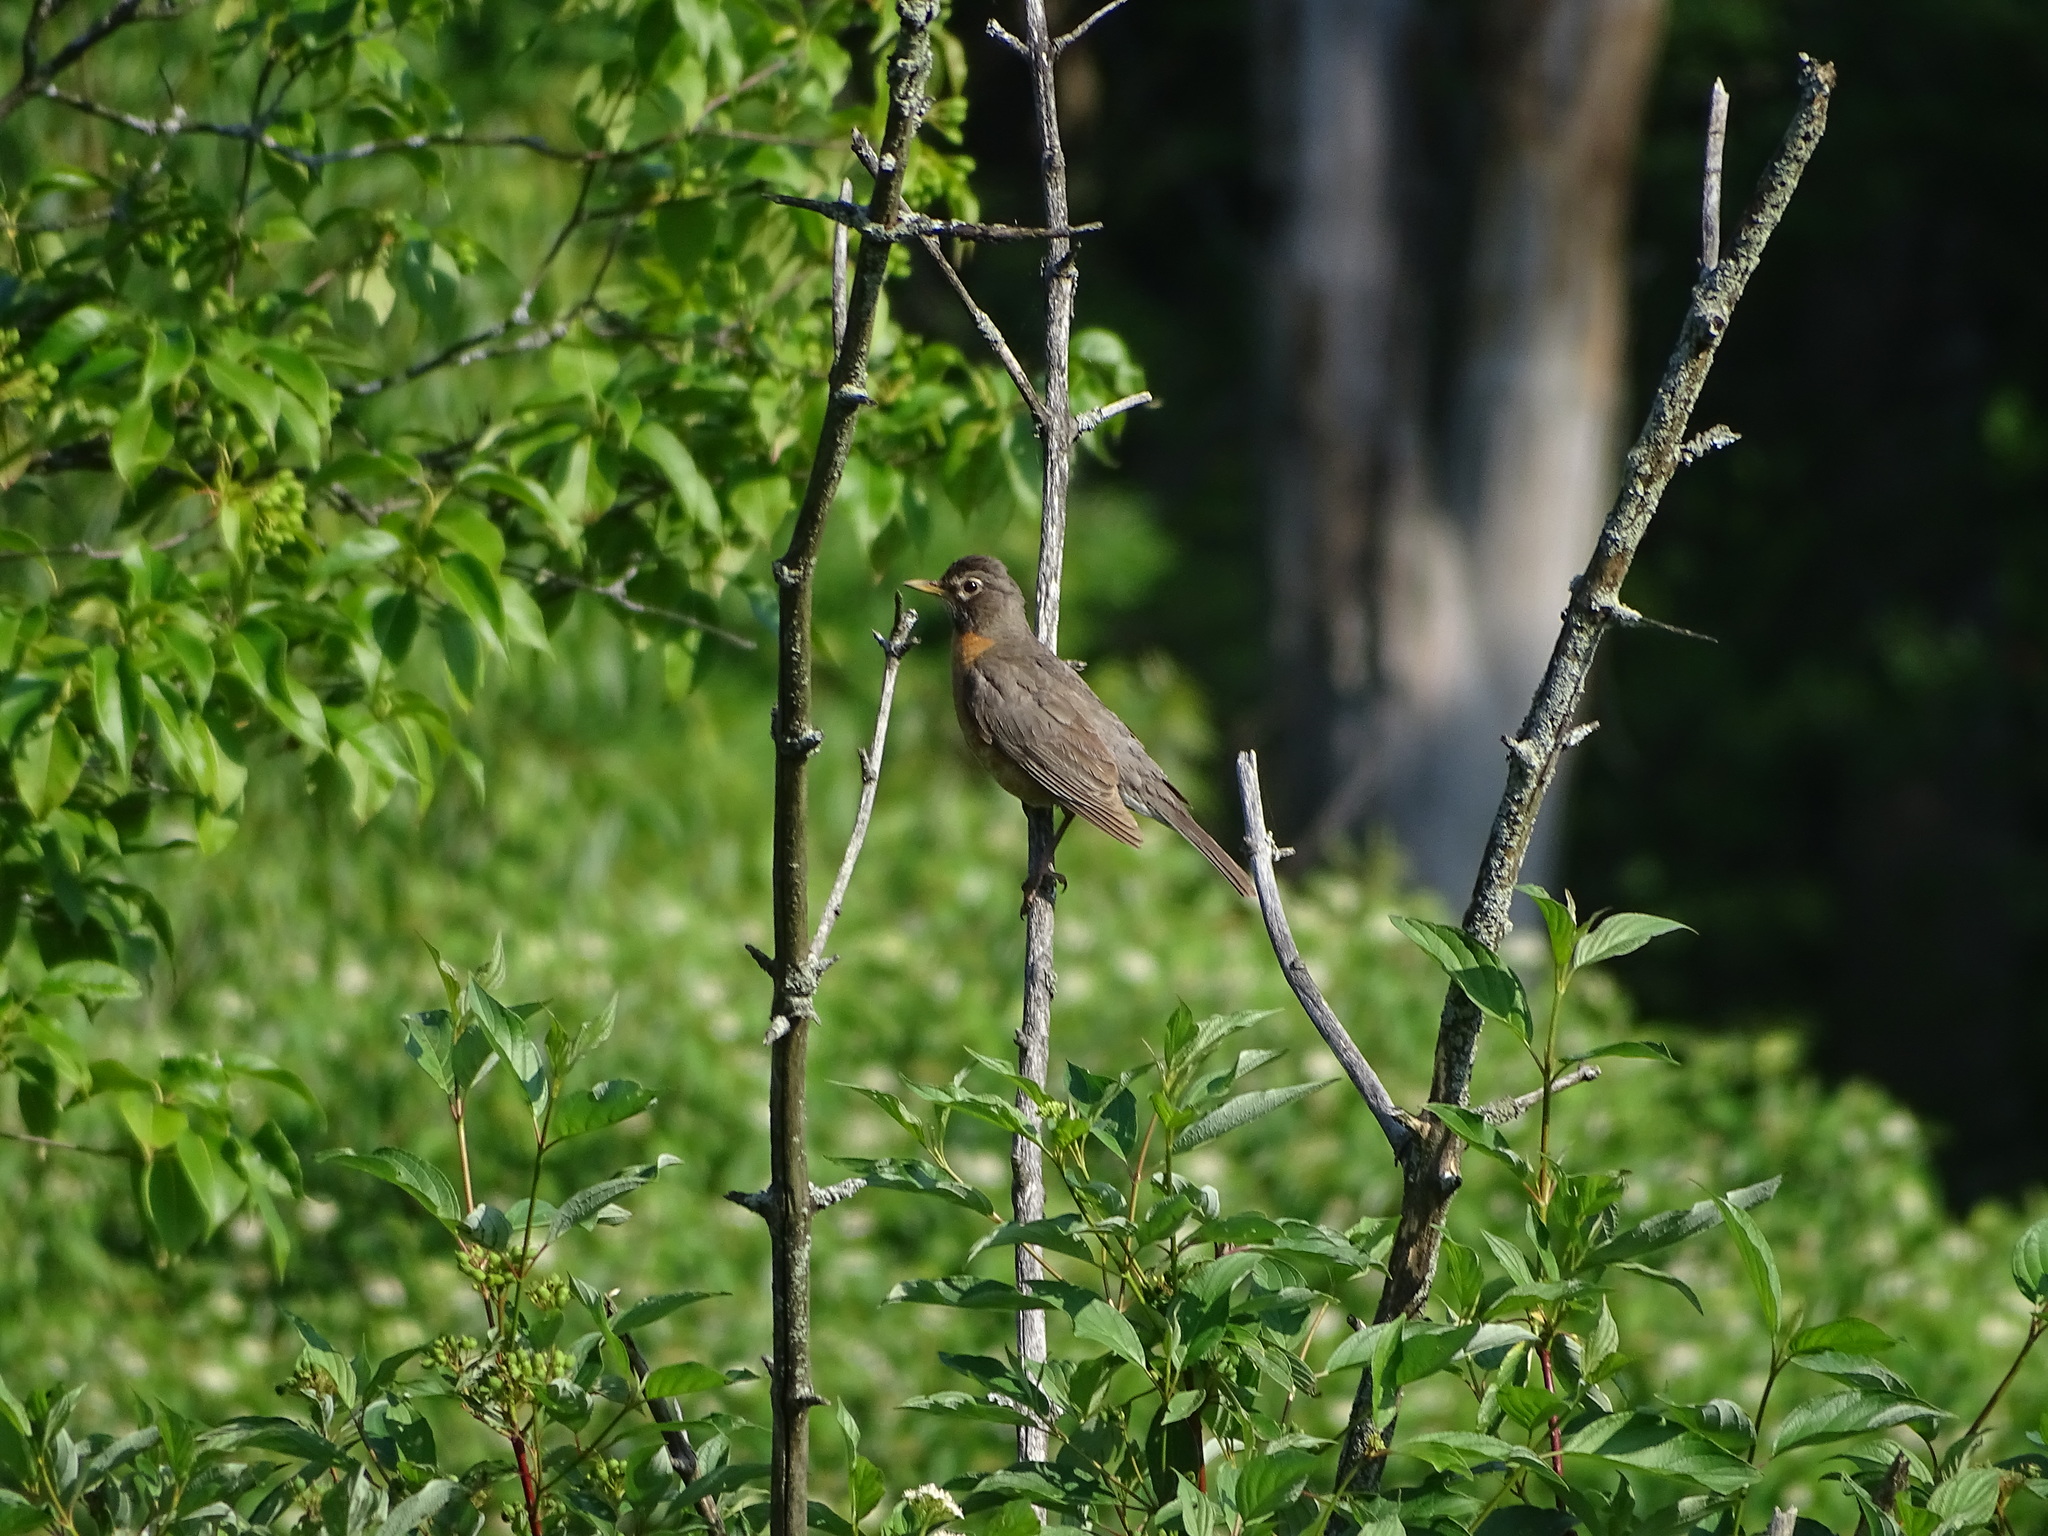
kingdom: Animalia
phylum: Chordata
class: Aves
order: Passeriformes
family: Turdidae
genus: Turdus
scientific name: Turdus migratorius
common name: American robin
